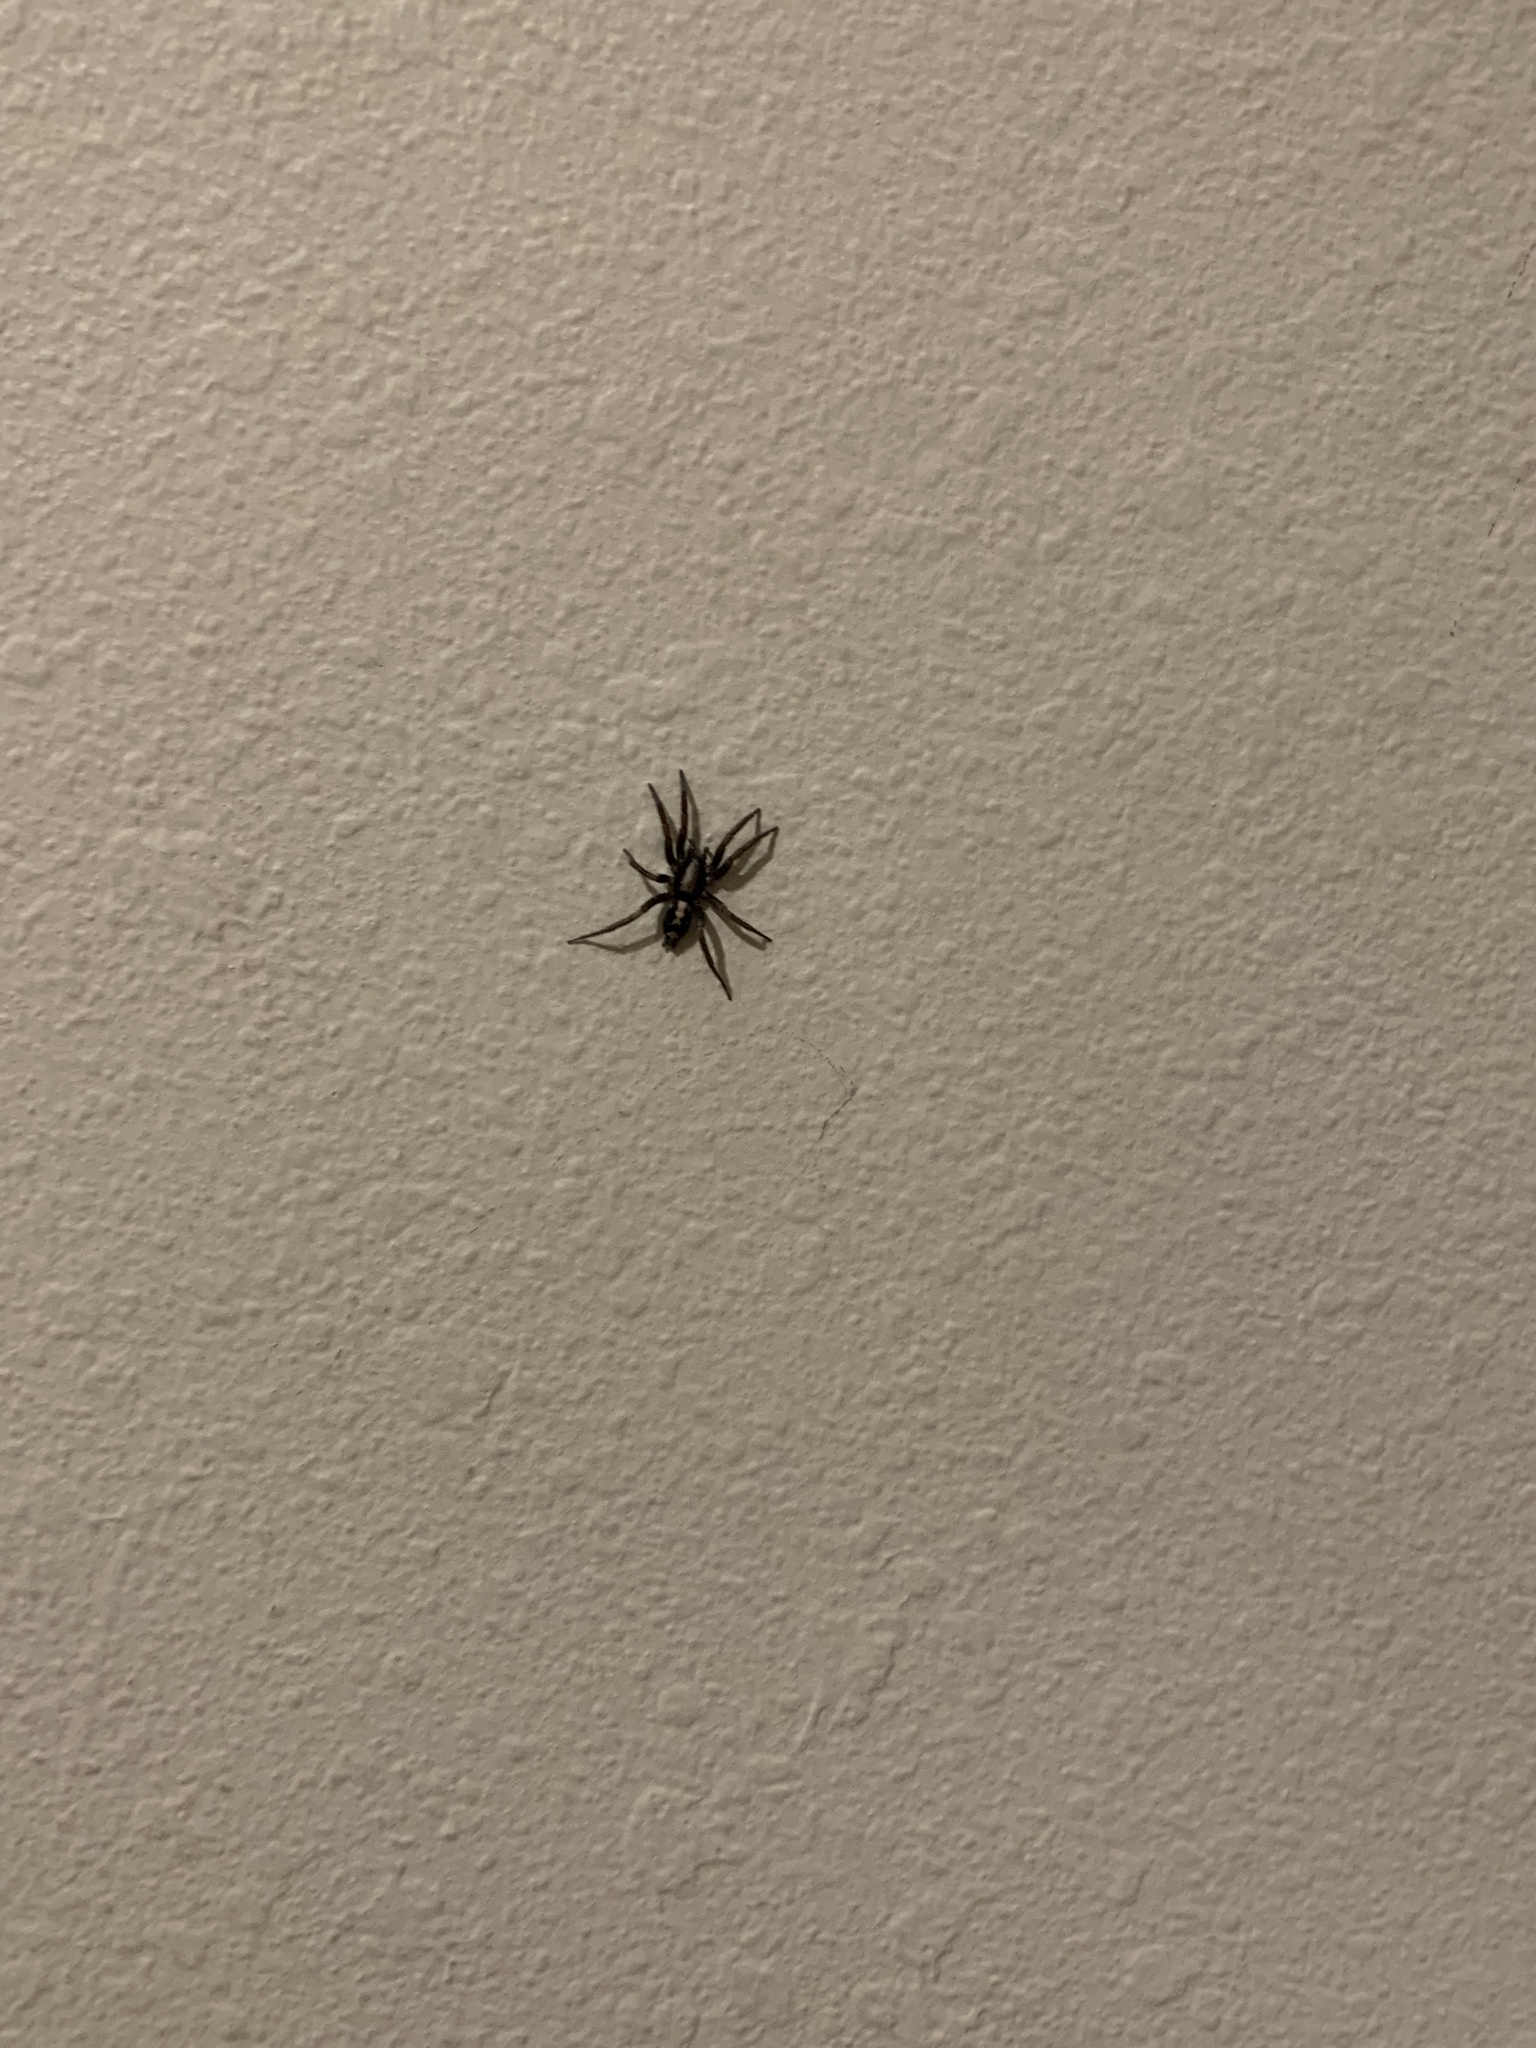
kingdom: Animalia
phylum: Arthropoda
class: Arachnida
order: Araneae
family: Gnaphosidae
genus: Herpyllus
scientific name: Herpyllus ecclesiasticus
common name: Eastern parson spider
